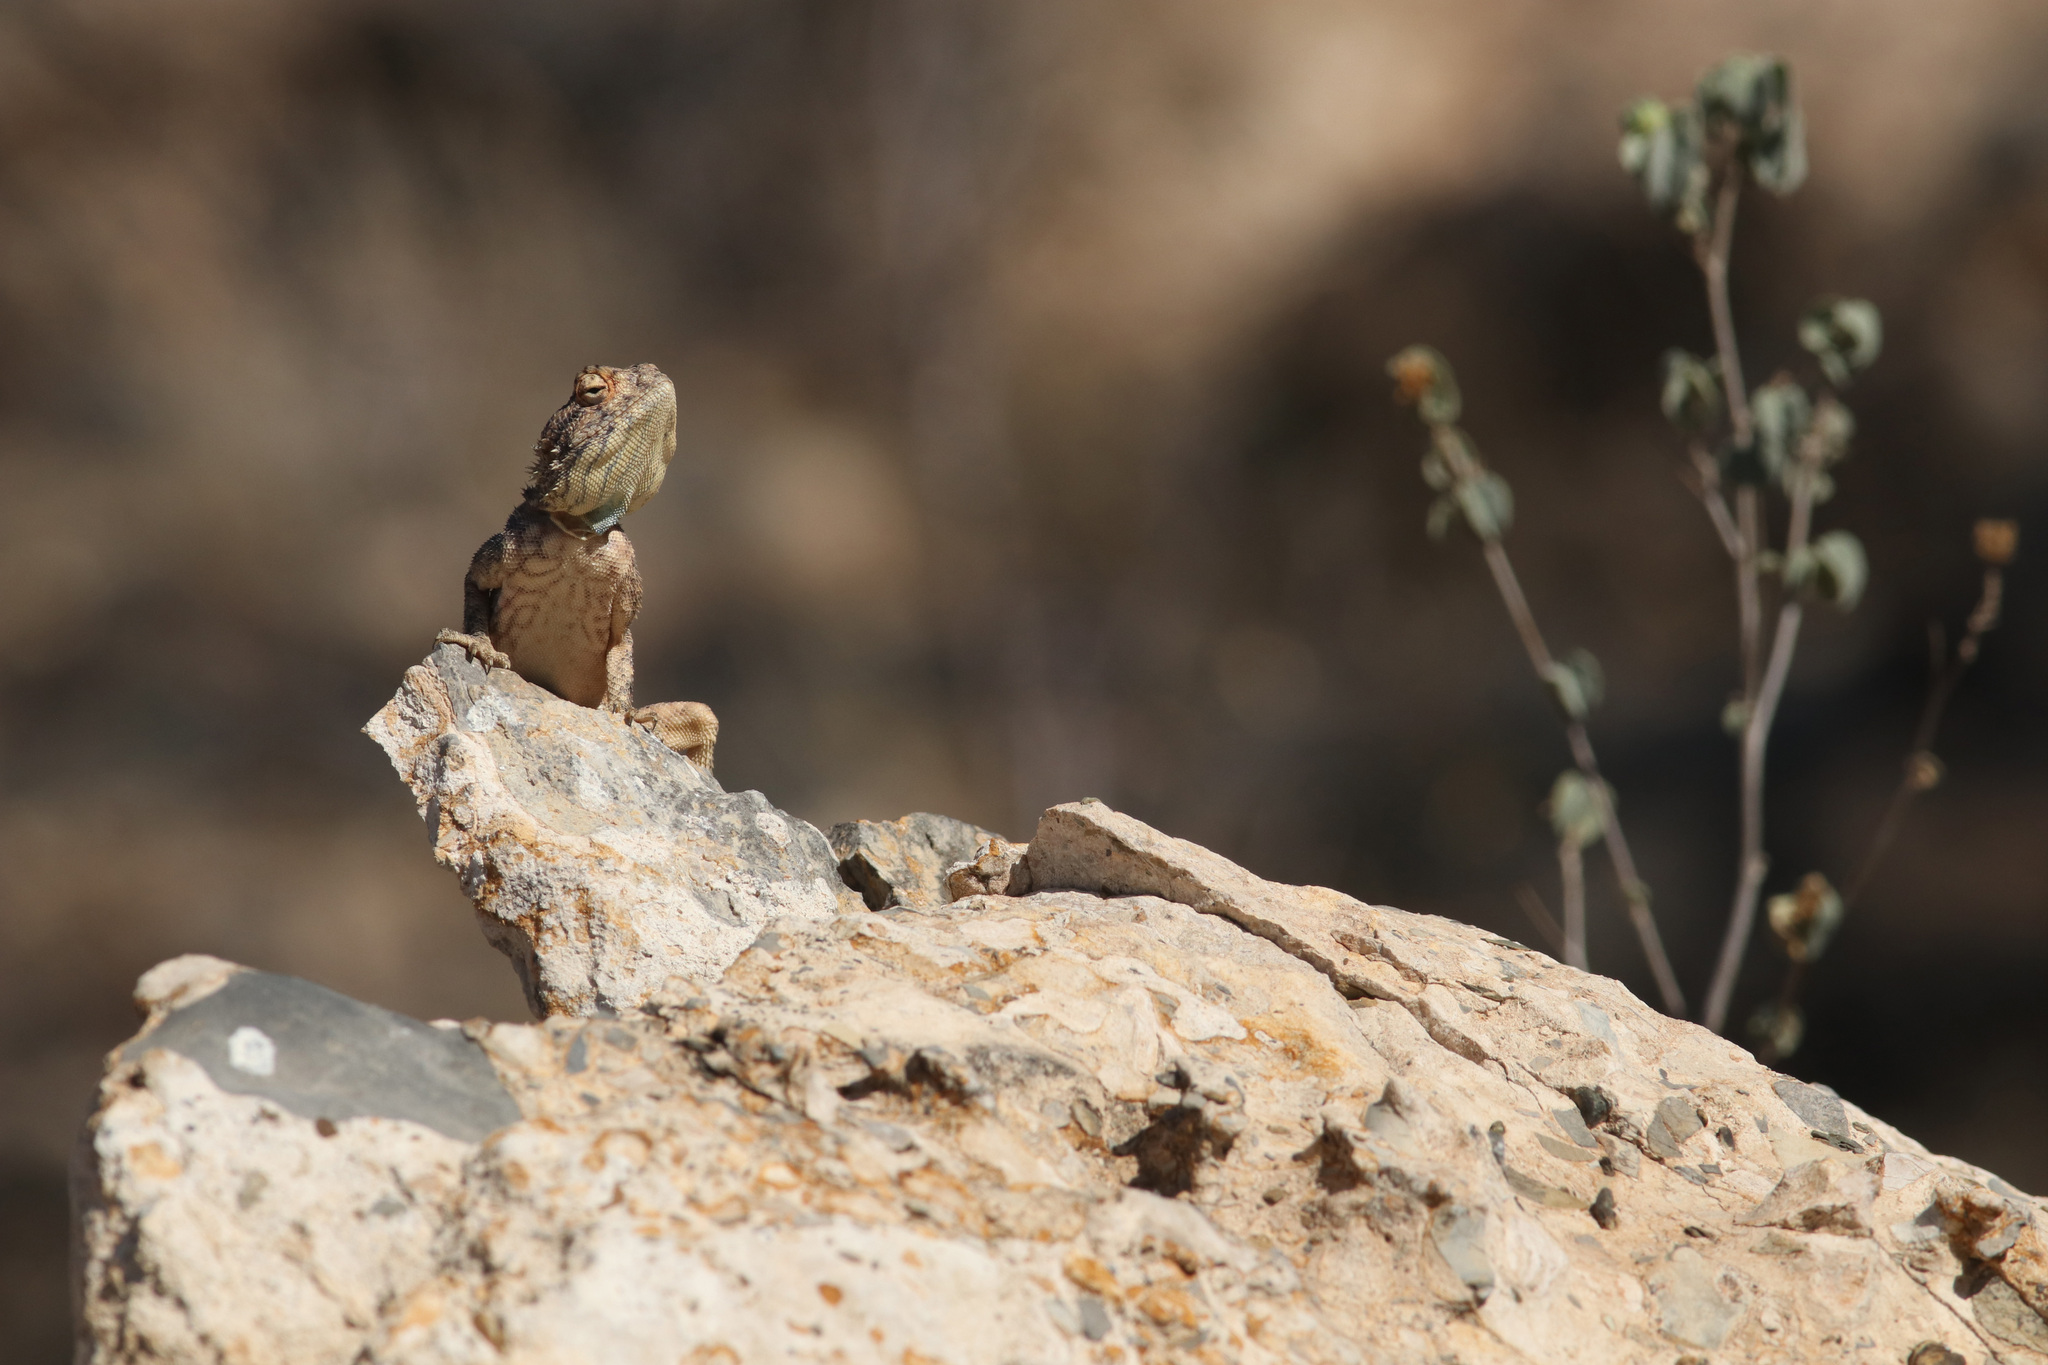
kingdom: Animalia
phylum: Chordata
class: Squamata
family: Agamidae
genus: Agama
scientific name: Agama anchietae
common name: Anchieta's agama
